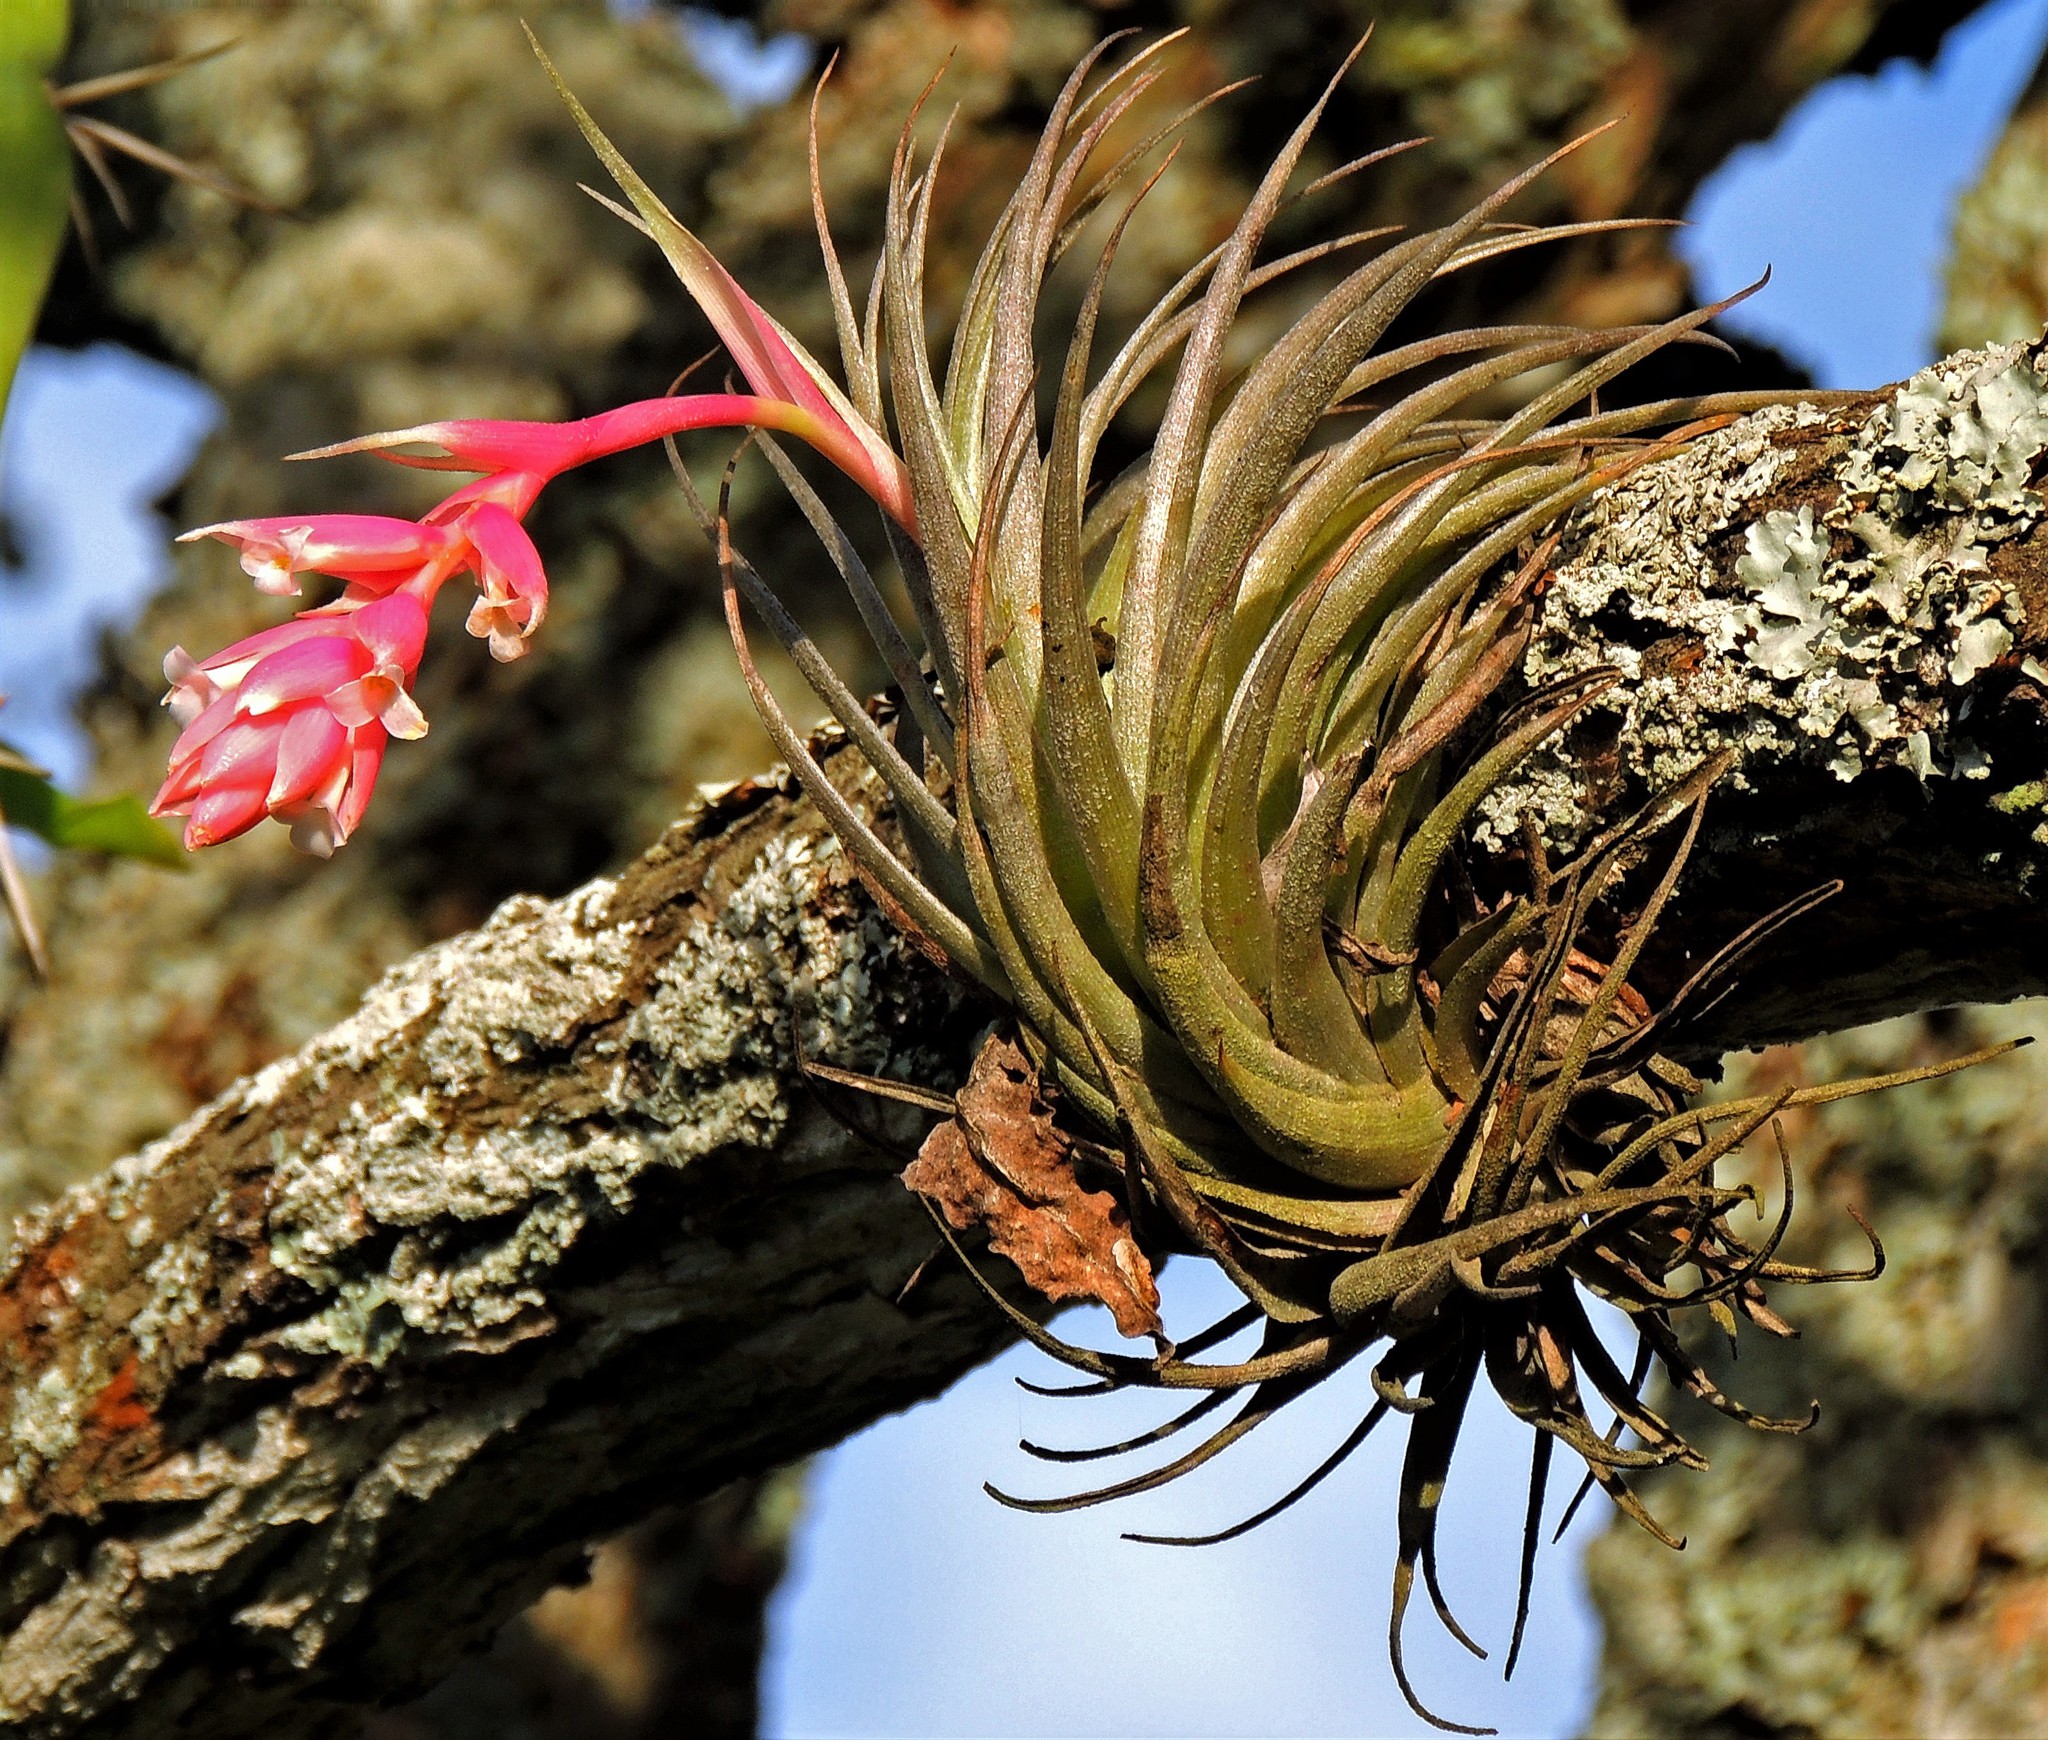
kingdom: Plantae
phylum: Tracheophyta
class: Liliopsida
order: Poales
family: Bromeliaceae
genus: Tillandsia
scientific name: Tillandsia recurvifolia
